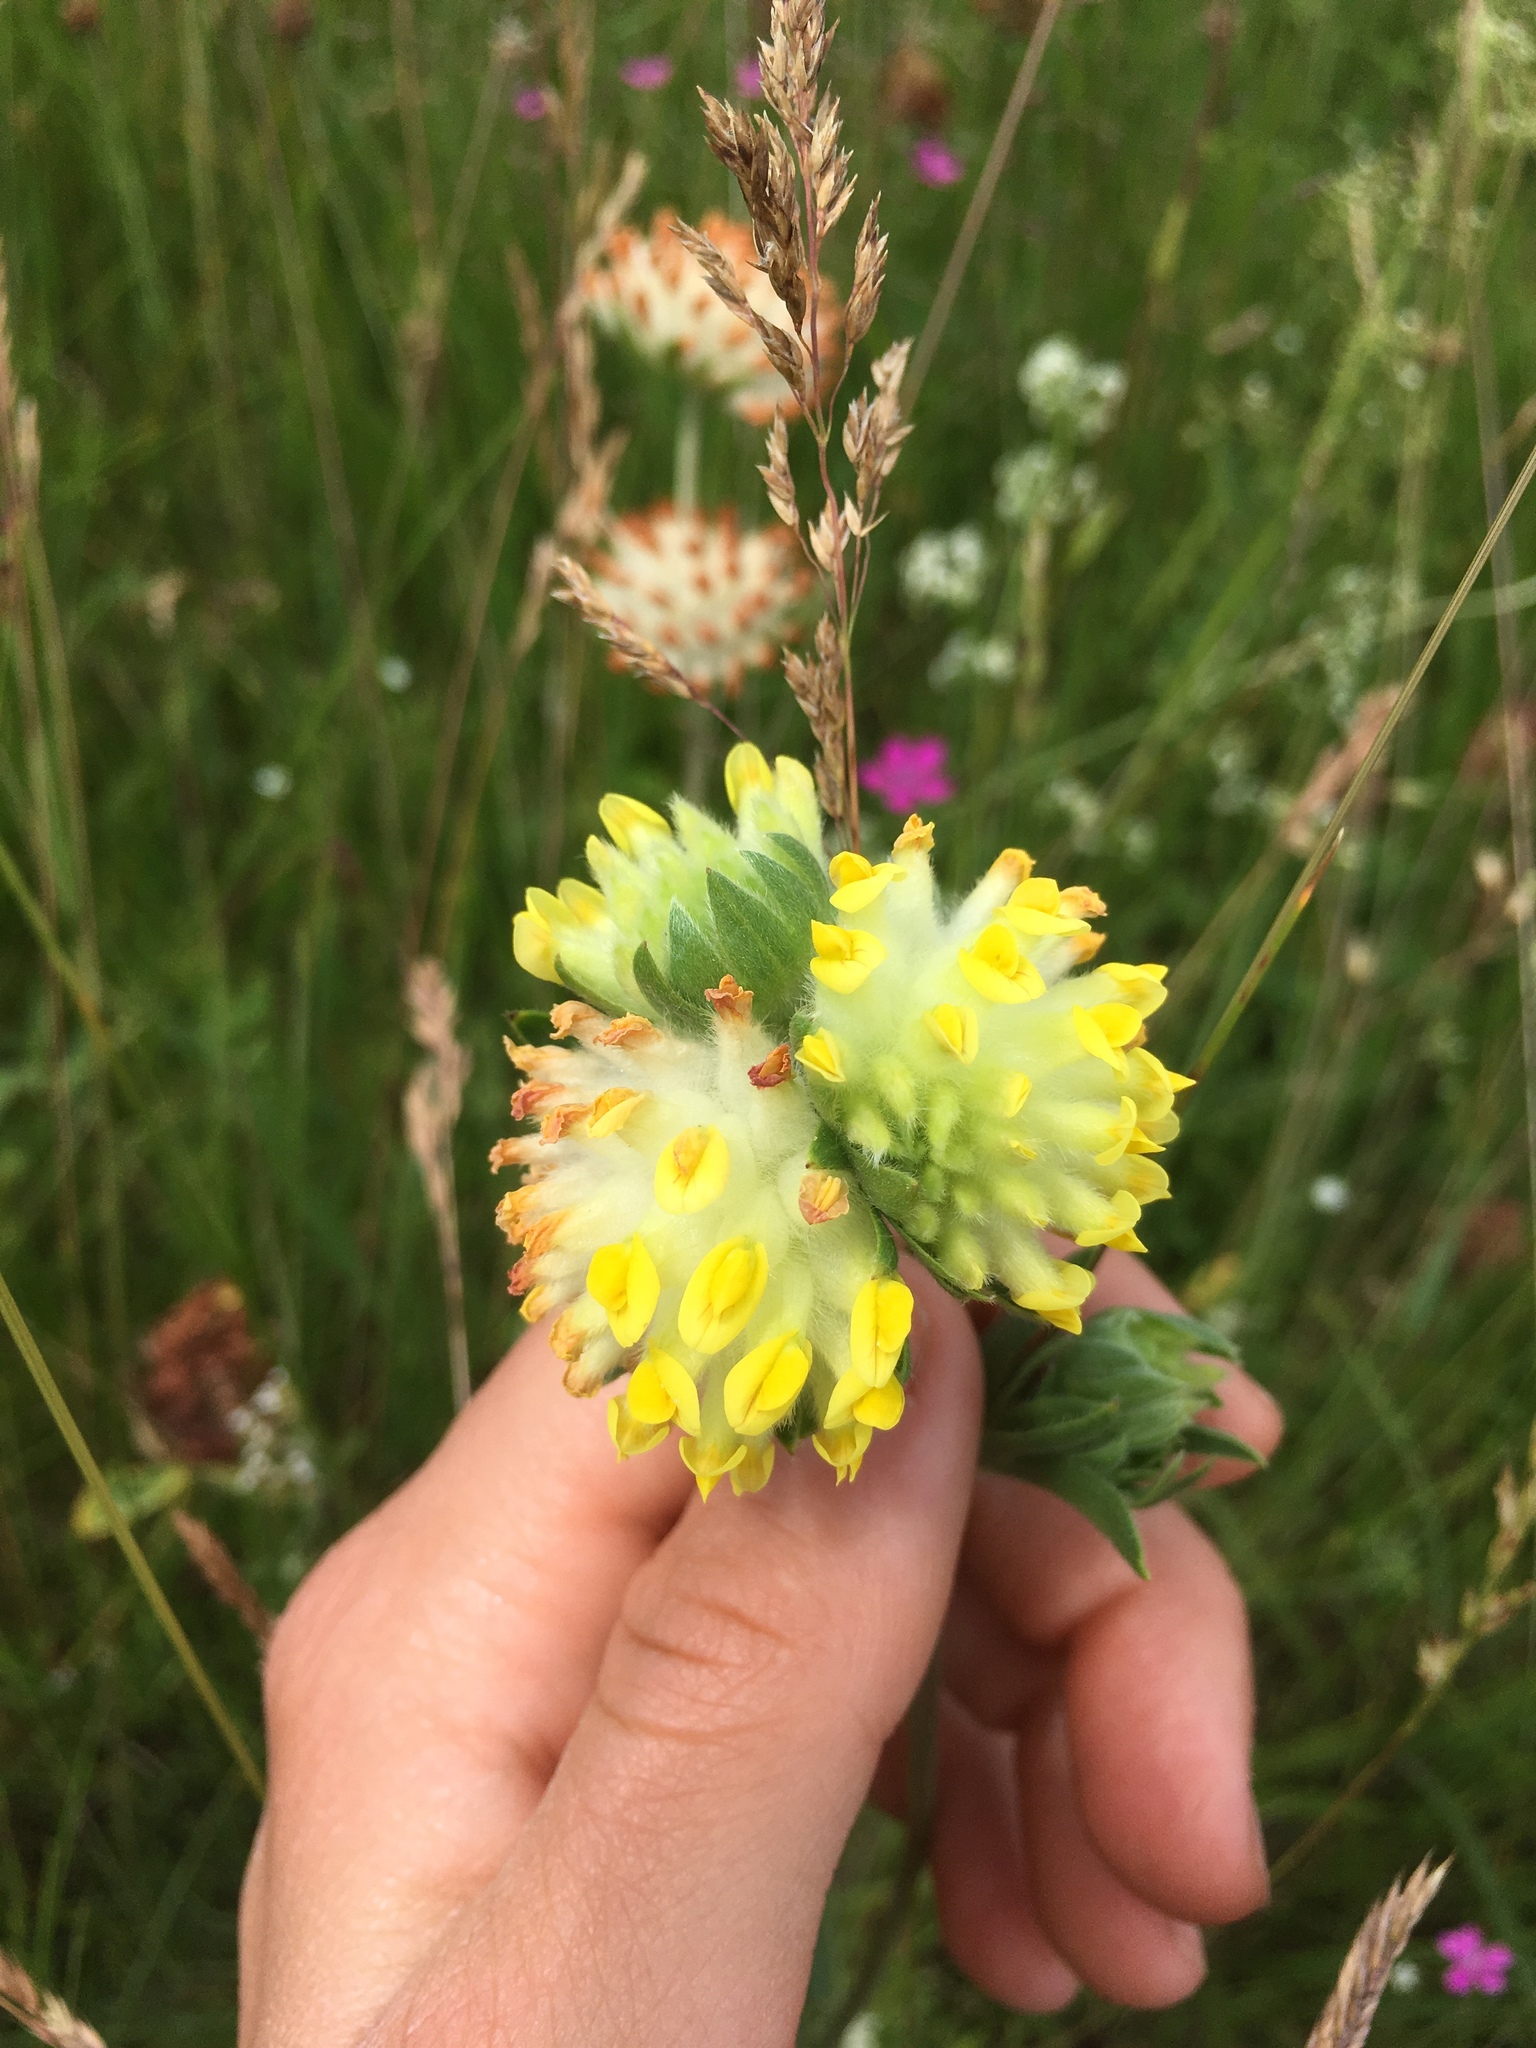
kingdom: Plantae
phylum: Tracheophyta
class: Magnoliopsida
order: Fabales
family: Fabaceae
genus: Anthyllis
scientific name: Anthyllis vulneraria
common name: Kidney vetch
